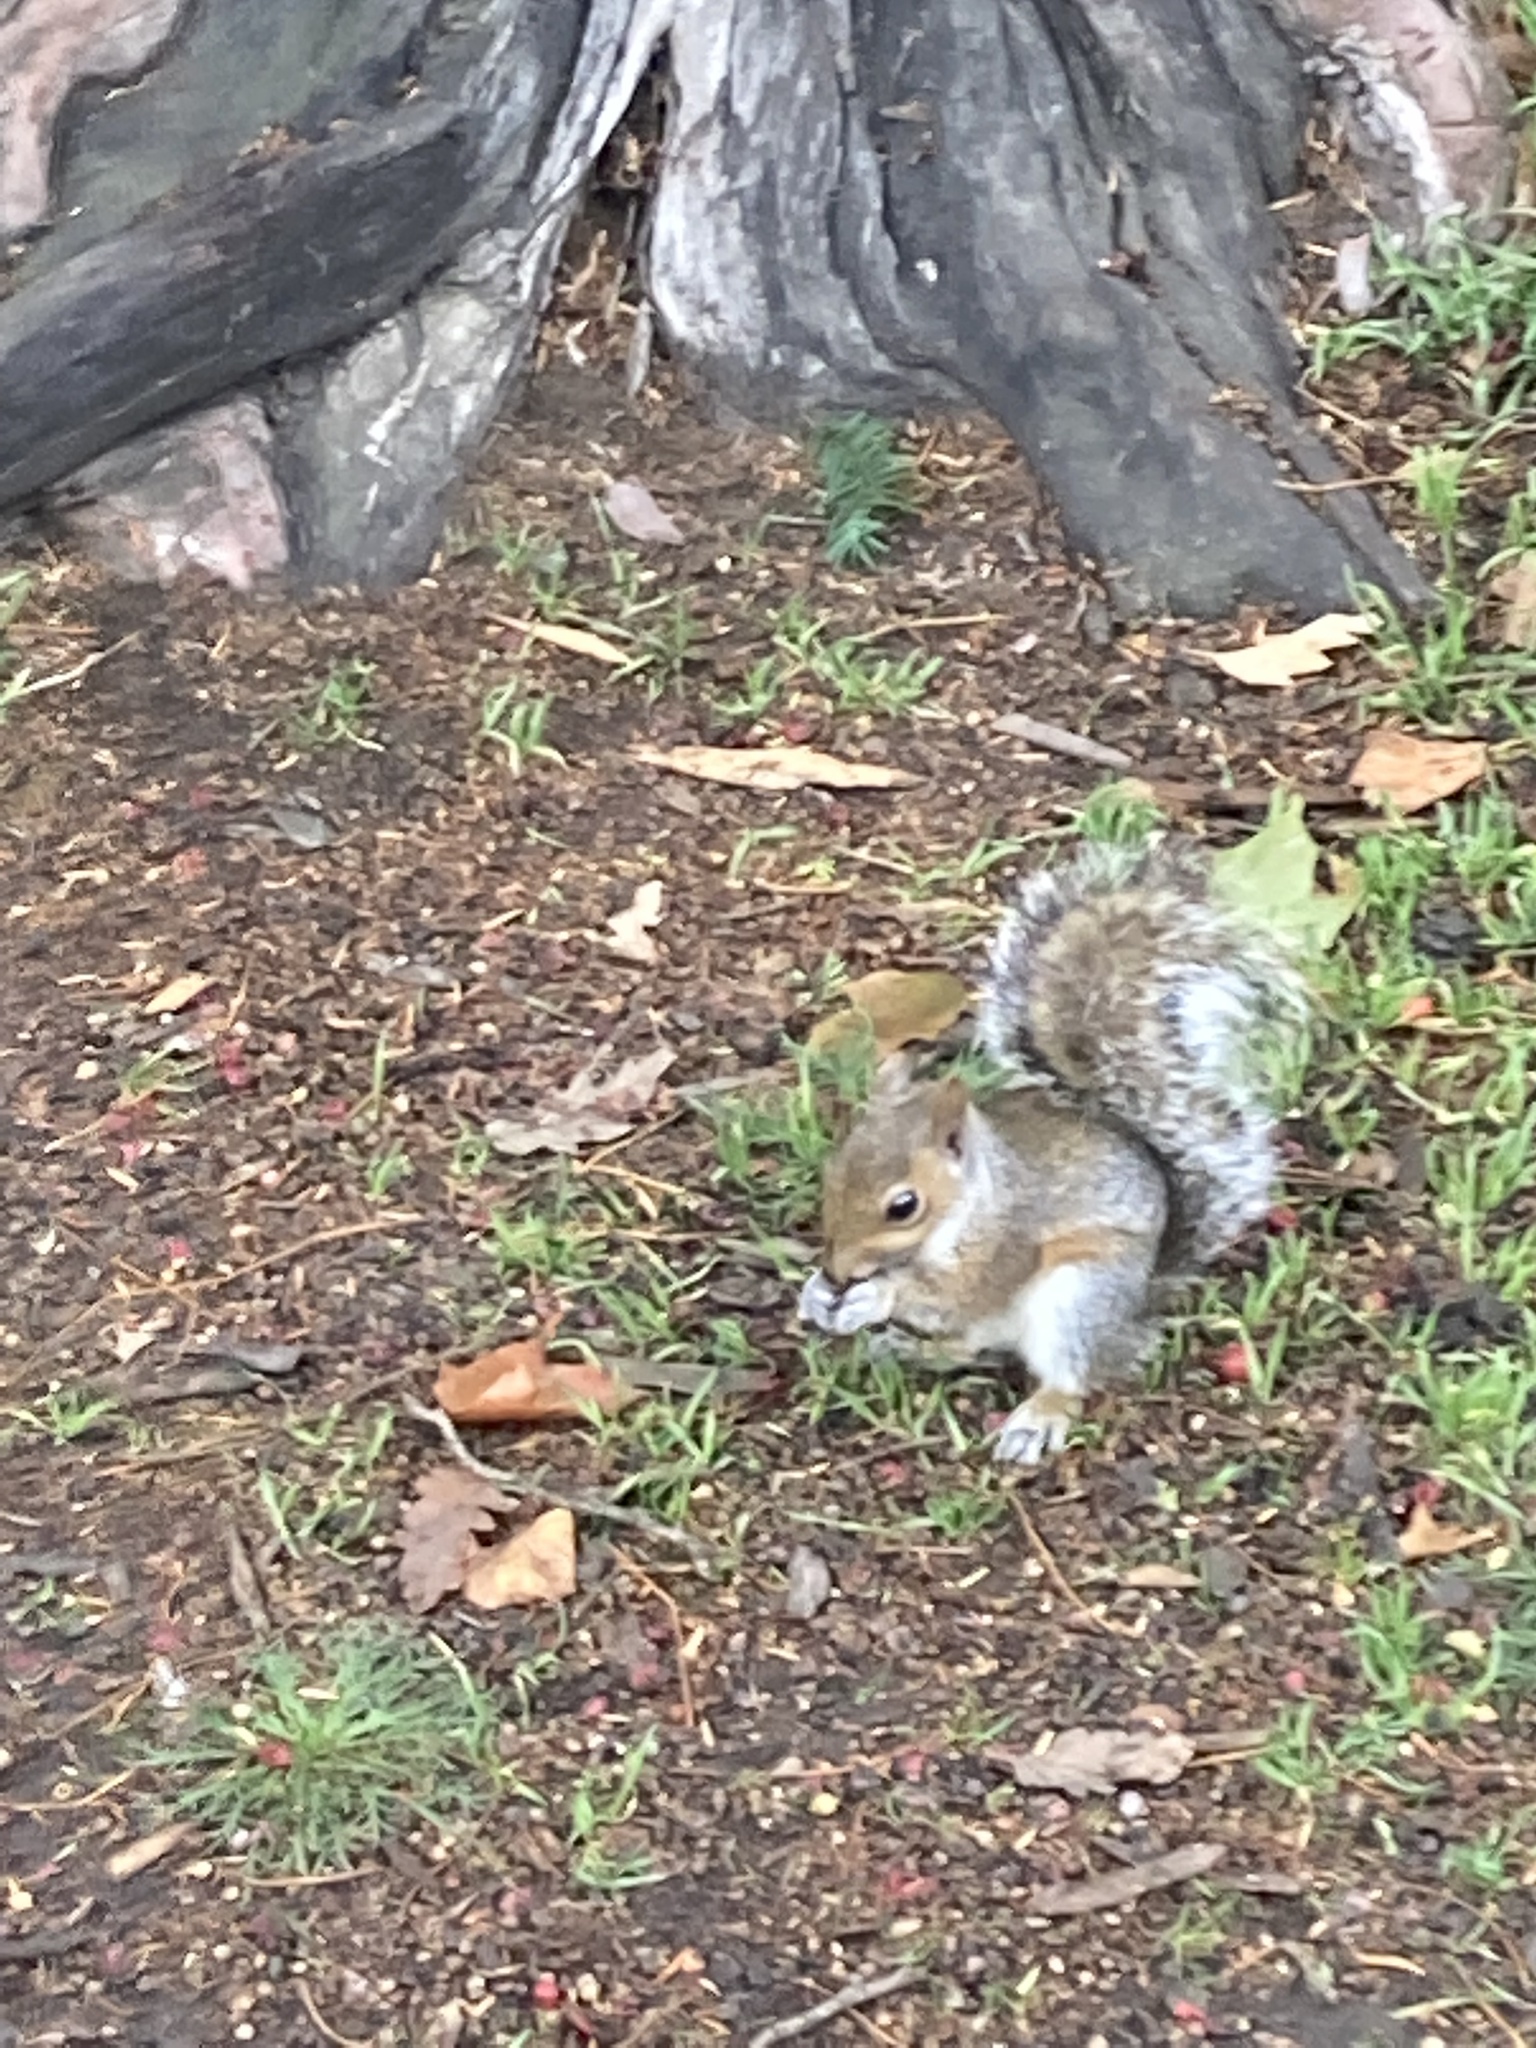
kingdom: Animalia
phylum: Chordata
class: Mammalia
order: Rodentia
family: Sciuridae
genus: Sciurus
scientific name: Sciurus carolinensis
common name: Eastern gray squirrel
